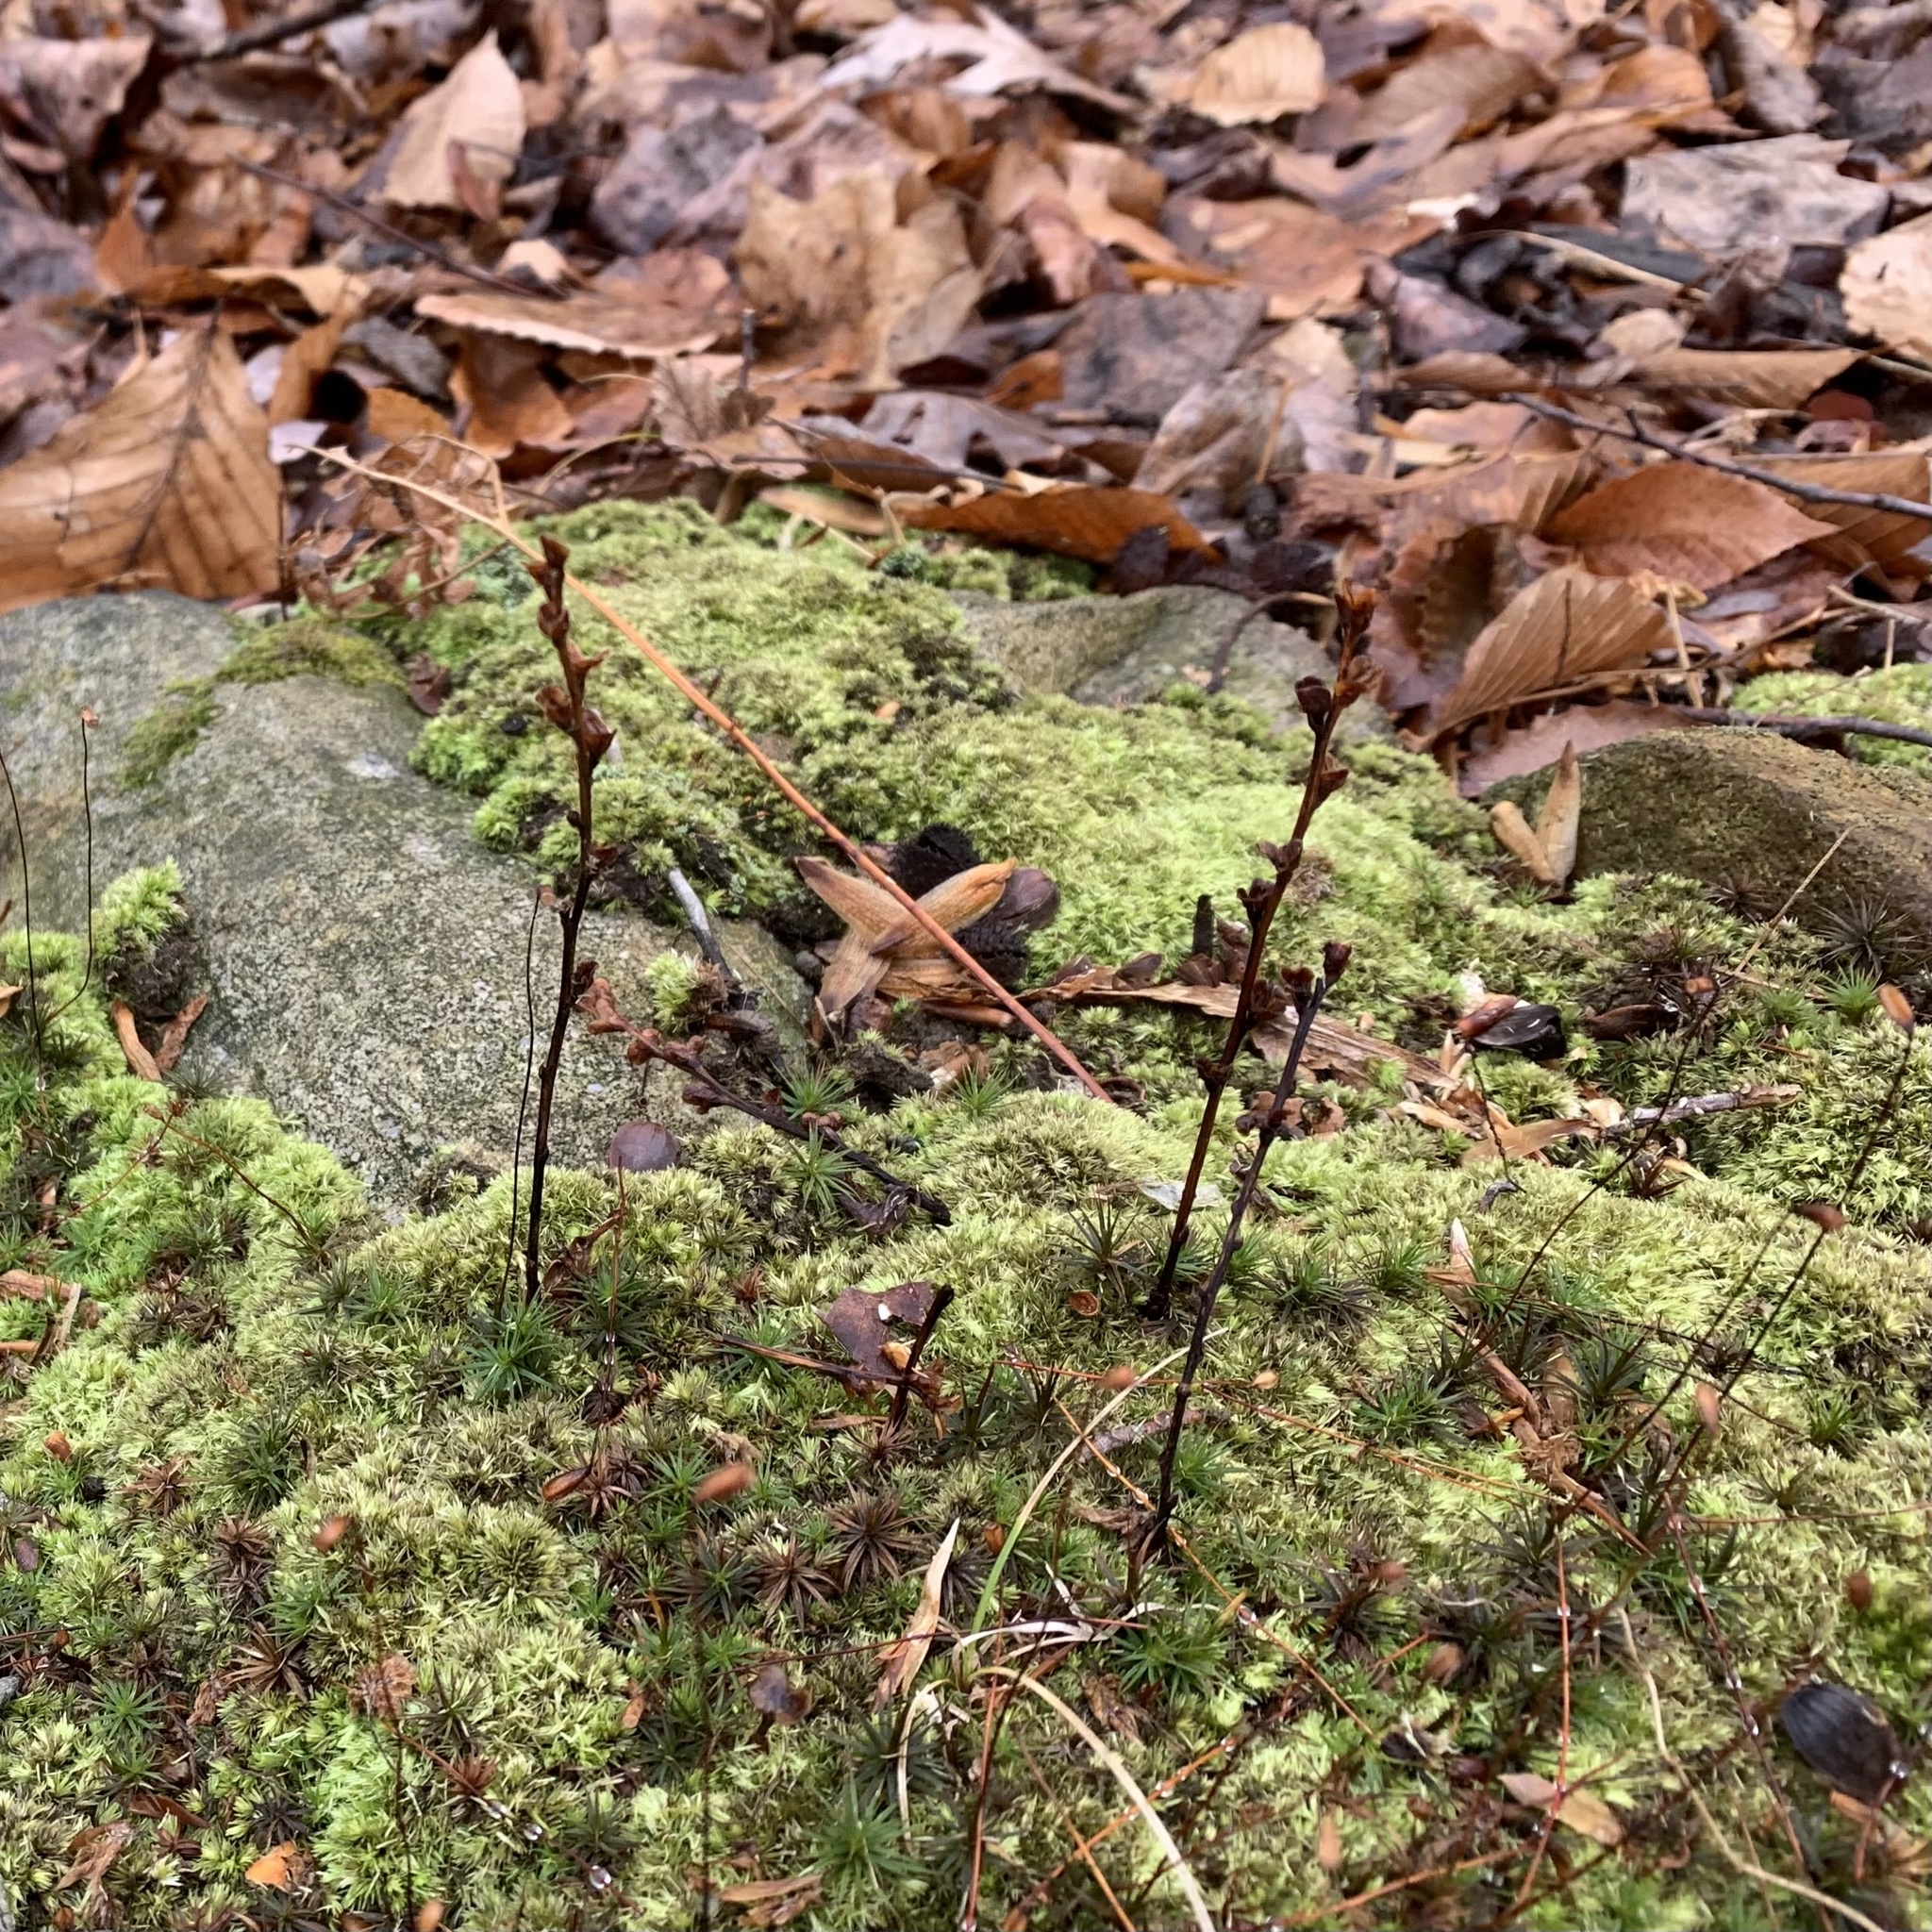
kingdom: Plantae
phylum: Tracheophyta
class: Magnoliopsida
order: Lamiales
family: Orobanchaceae
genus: Epifagus
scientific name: Epifagus virginiana
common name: Beechdrops
